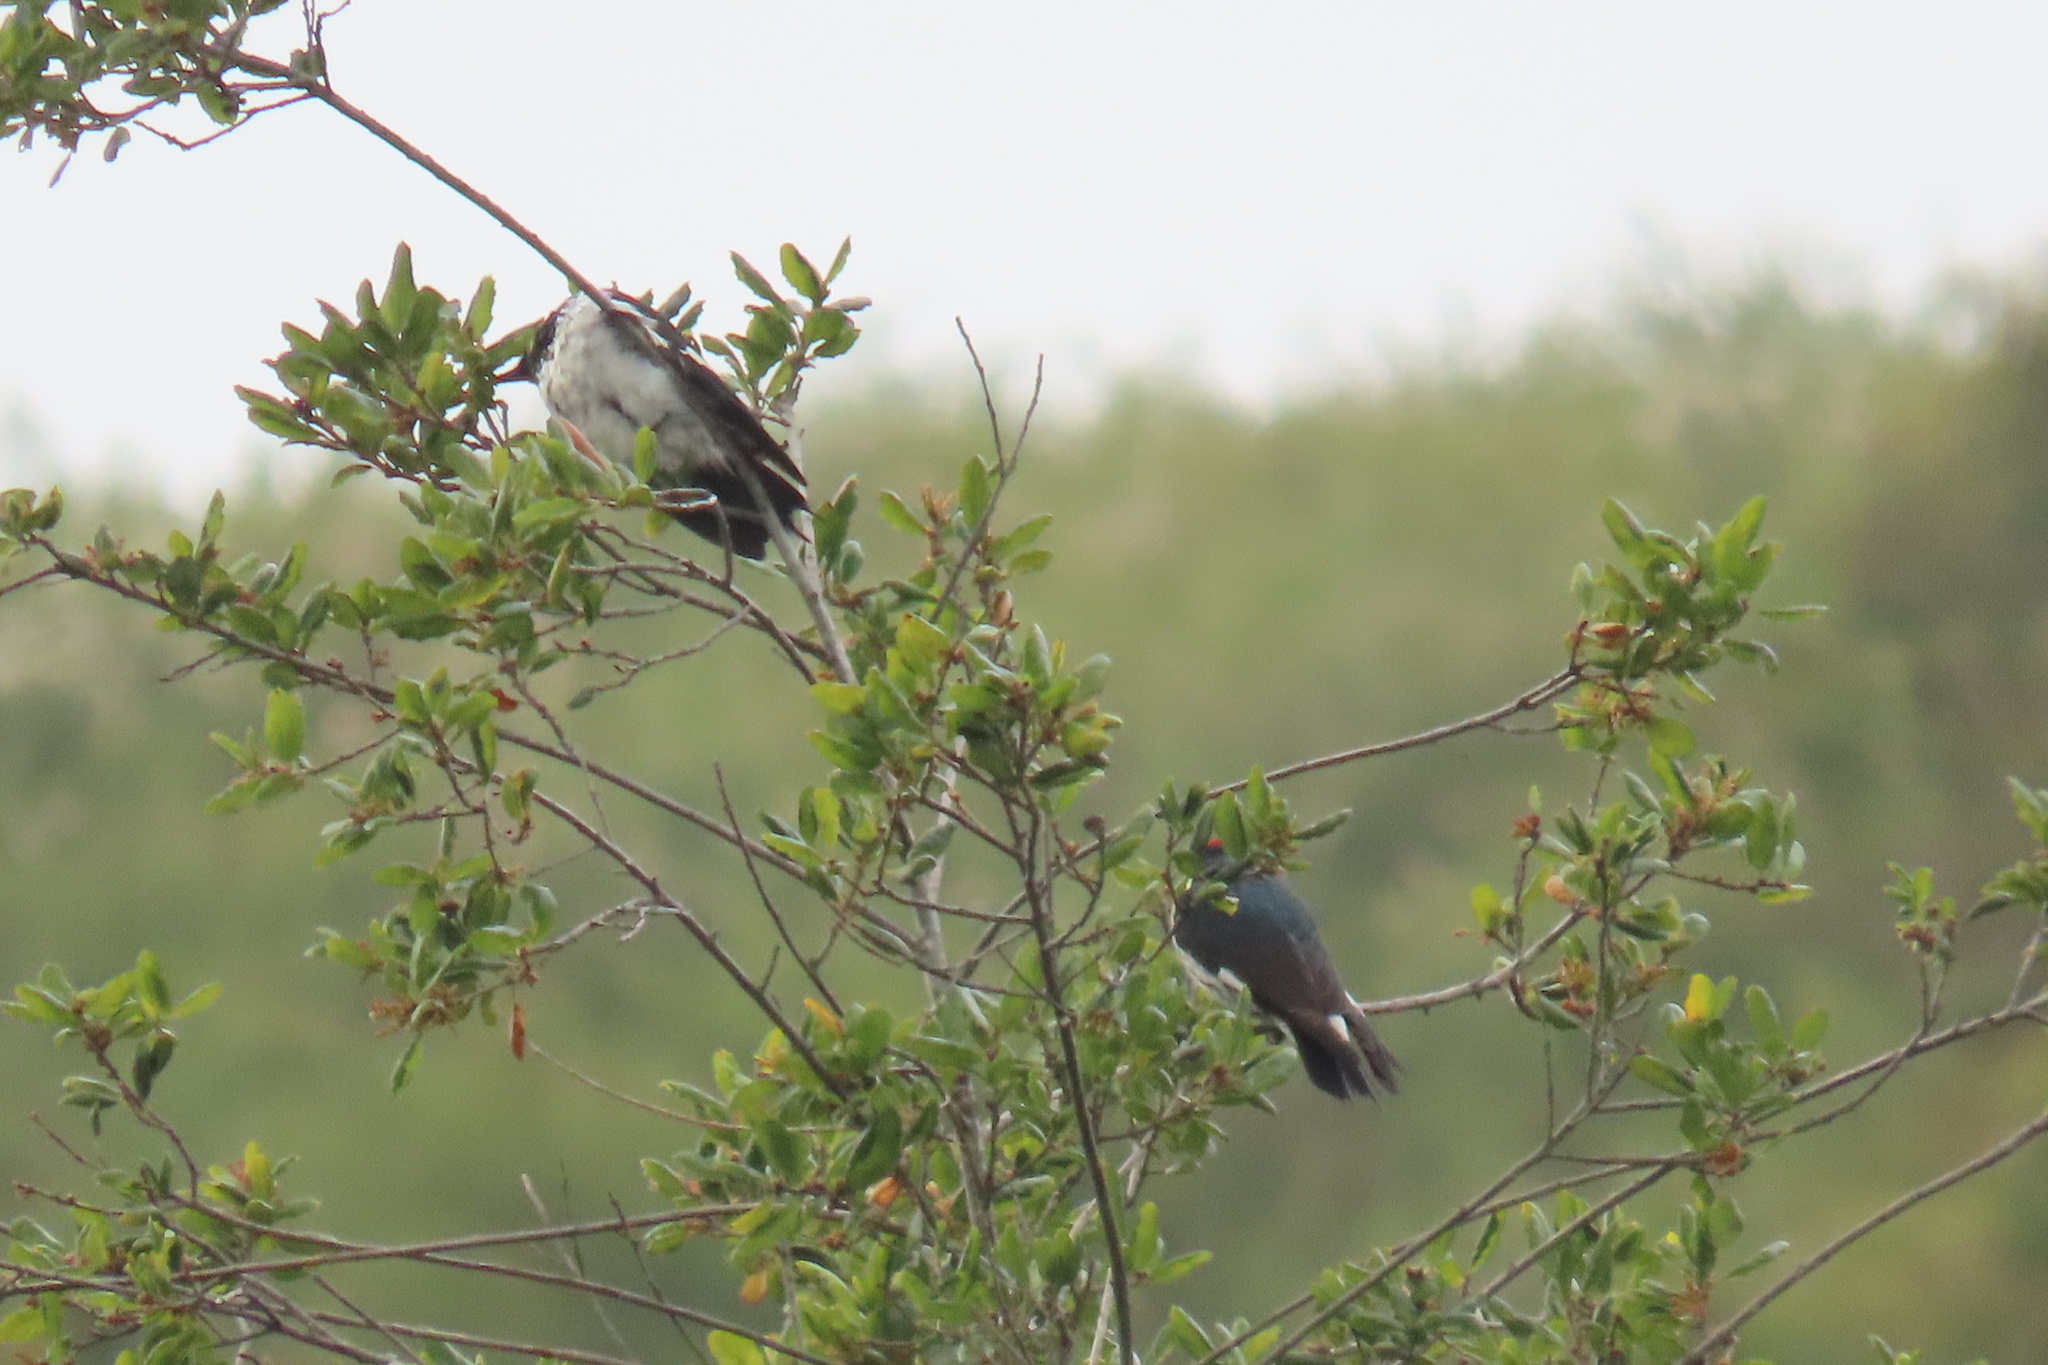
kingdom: Animalia
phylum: Chordata
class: Aves
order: Piciformes
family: Picidae
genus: Melanerpes
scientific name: Melanerpes formicivorus
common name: Acorn woodpecker
